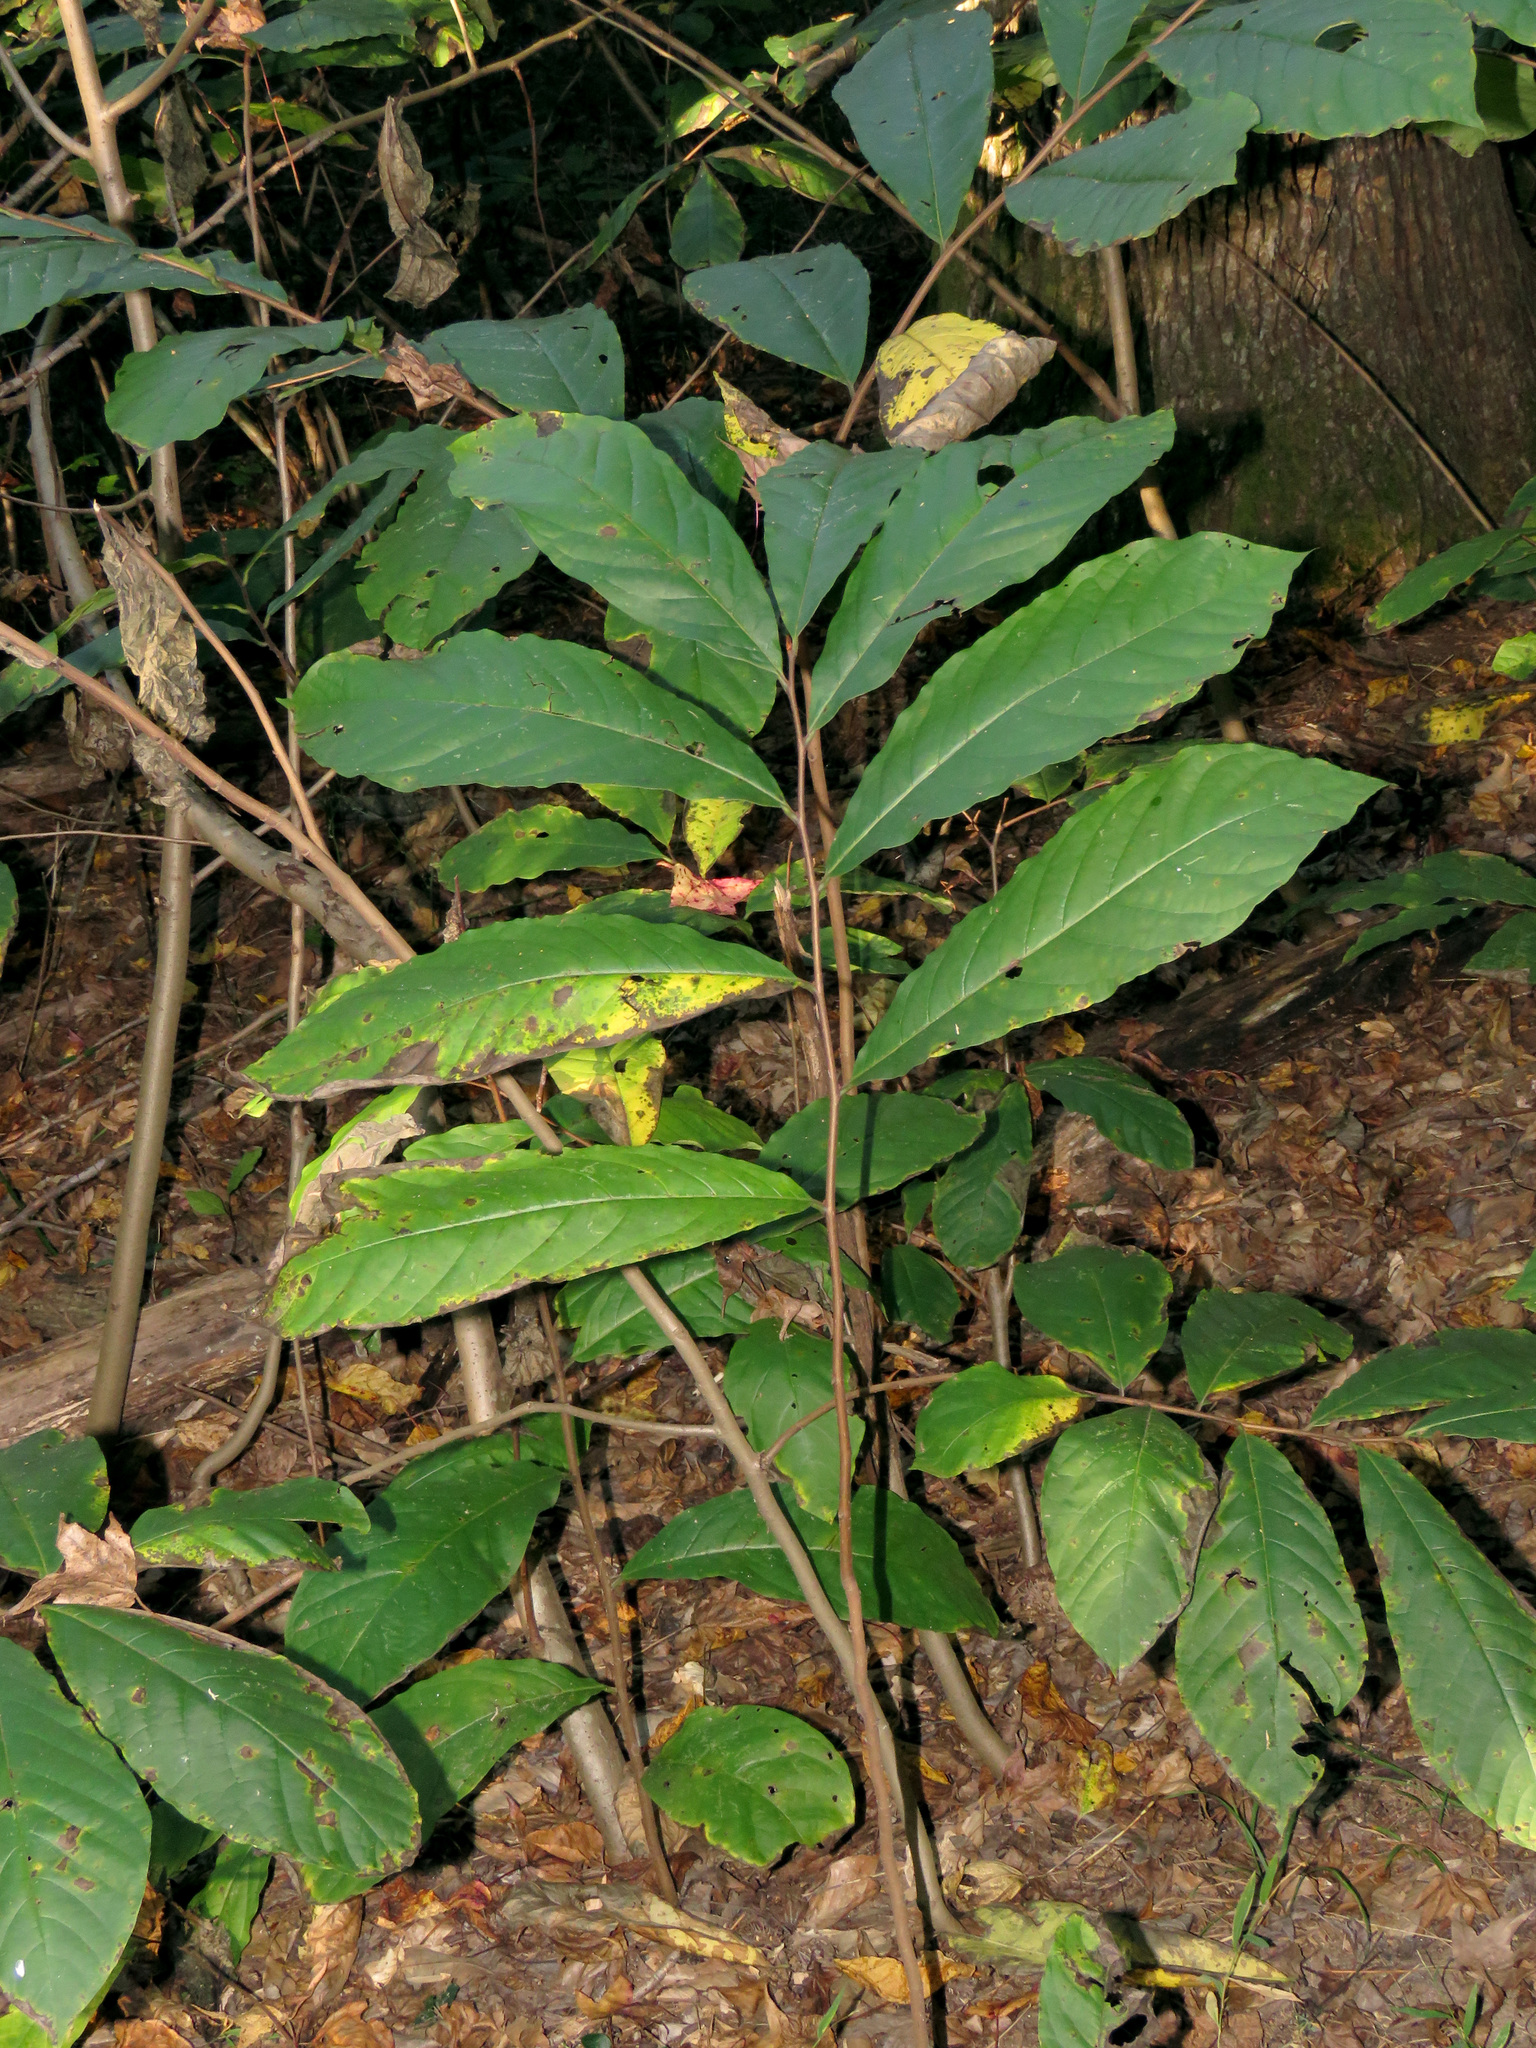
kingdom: Plantae
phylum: Tracheophyta
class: Magnoliopsida
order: Magnoliales
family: Annonaceae
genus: Asimina
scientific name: Asimina triloba
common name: Dog-banana
